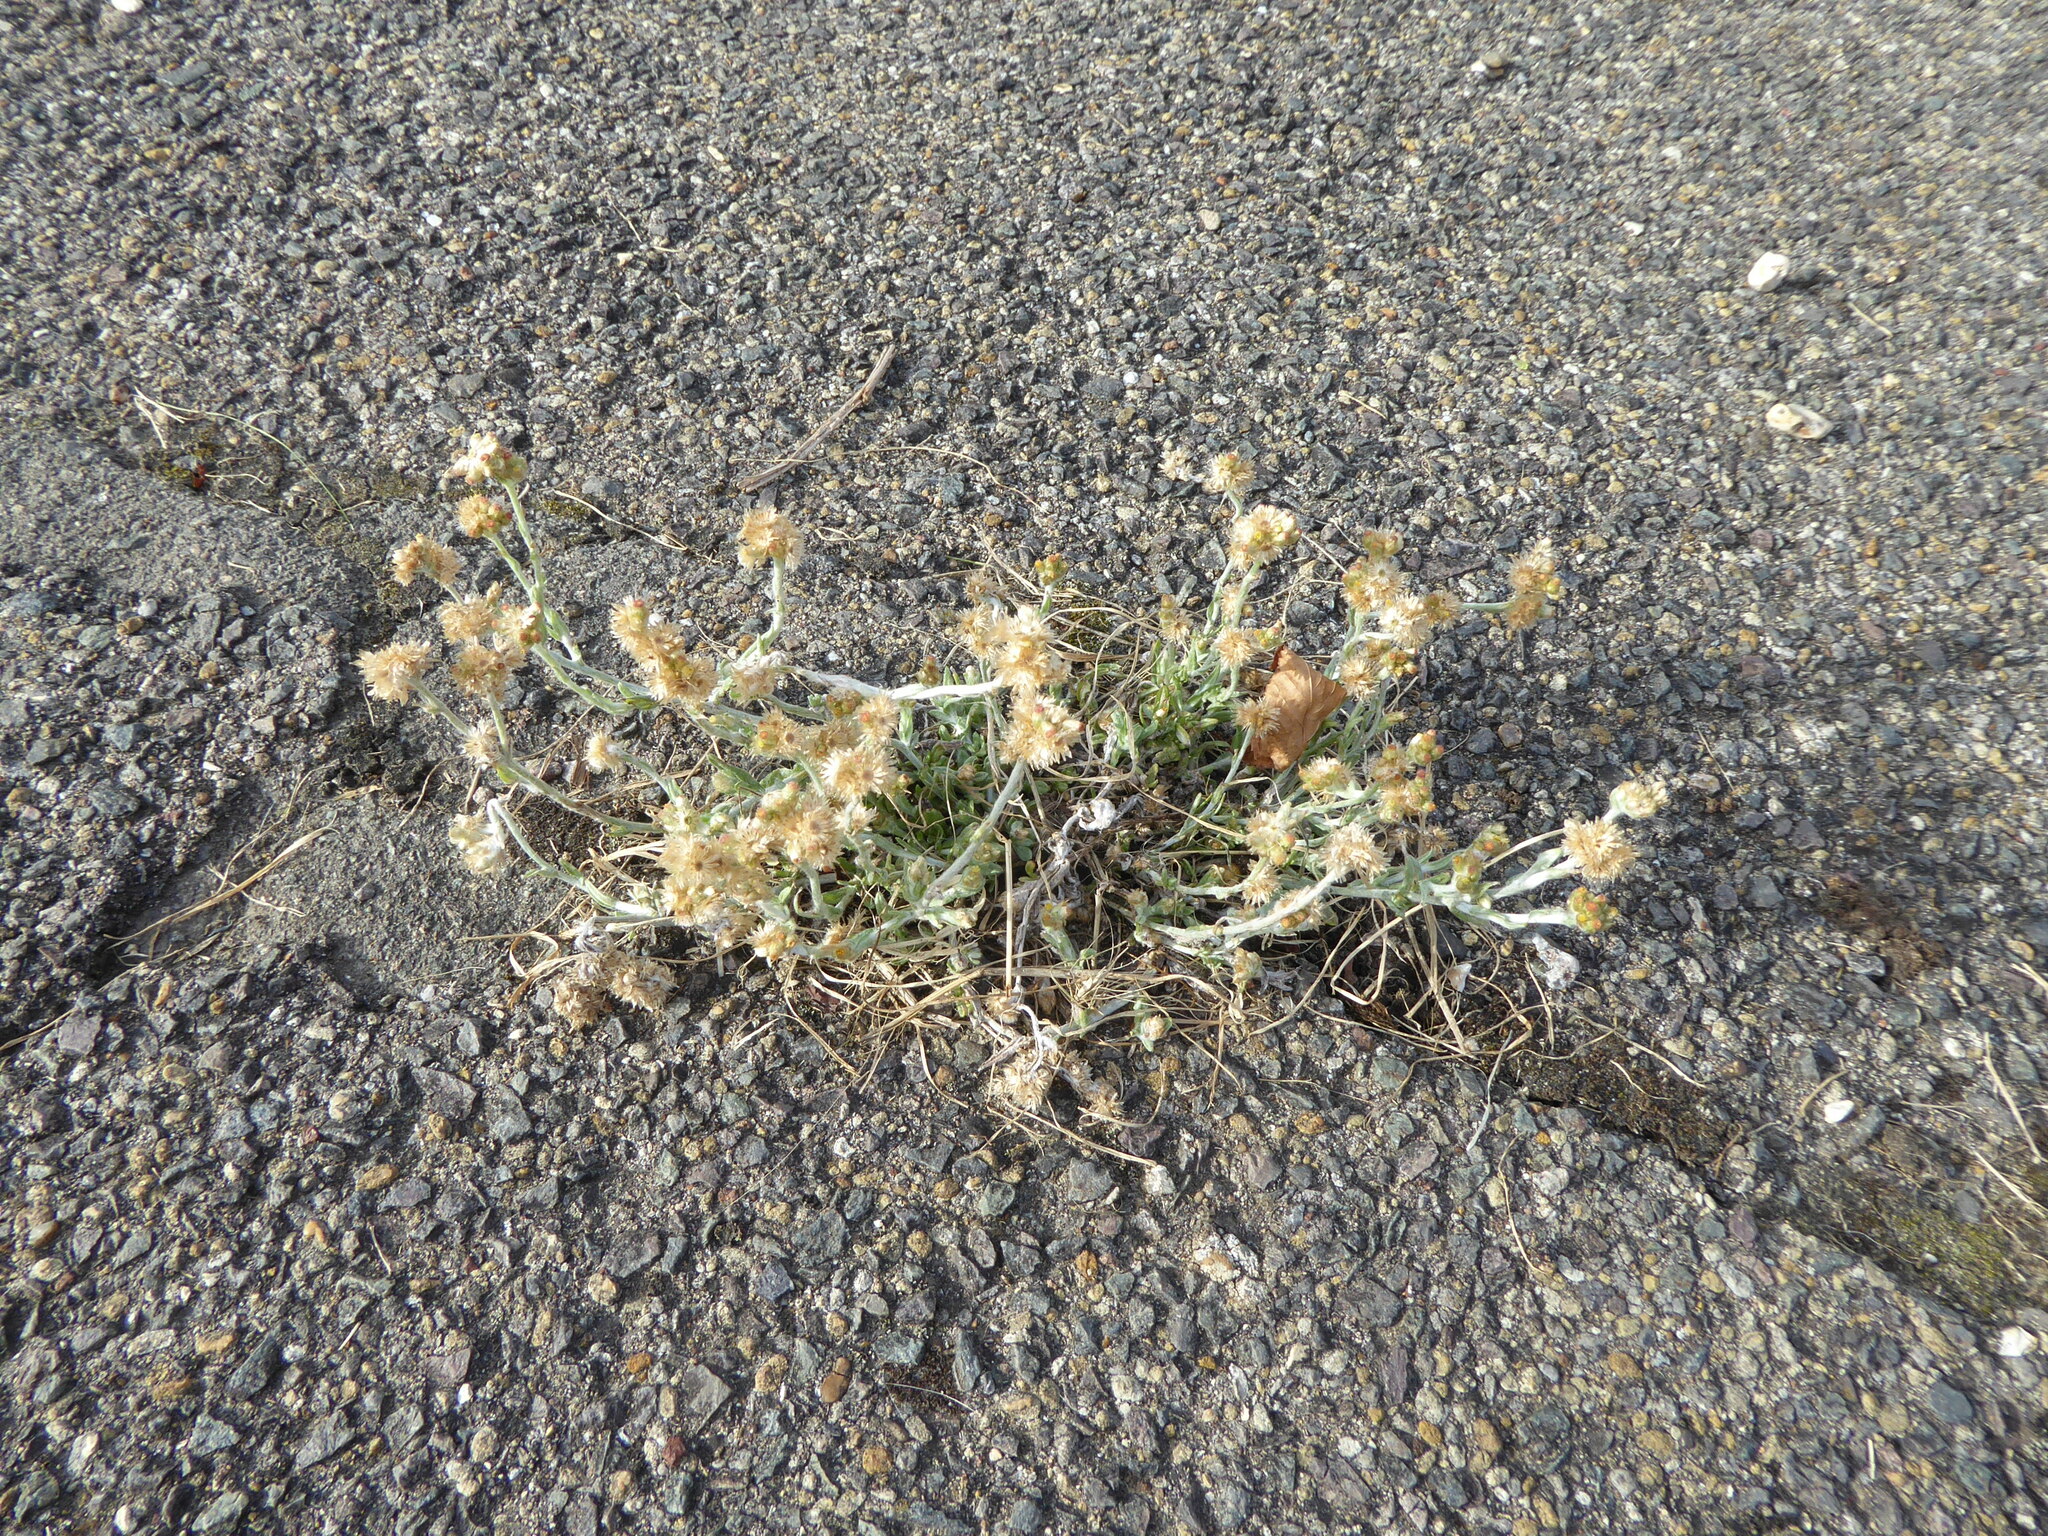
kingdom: Plantae
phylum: Tracheophyta
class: Magnoliopsida
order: Asterales
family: Asteraceae
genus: Helichrysum
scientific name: Helichrysum luteoalbum
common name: Daisy
